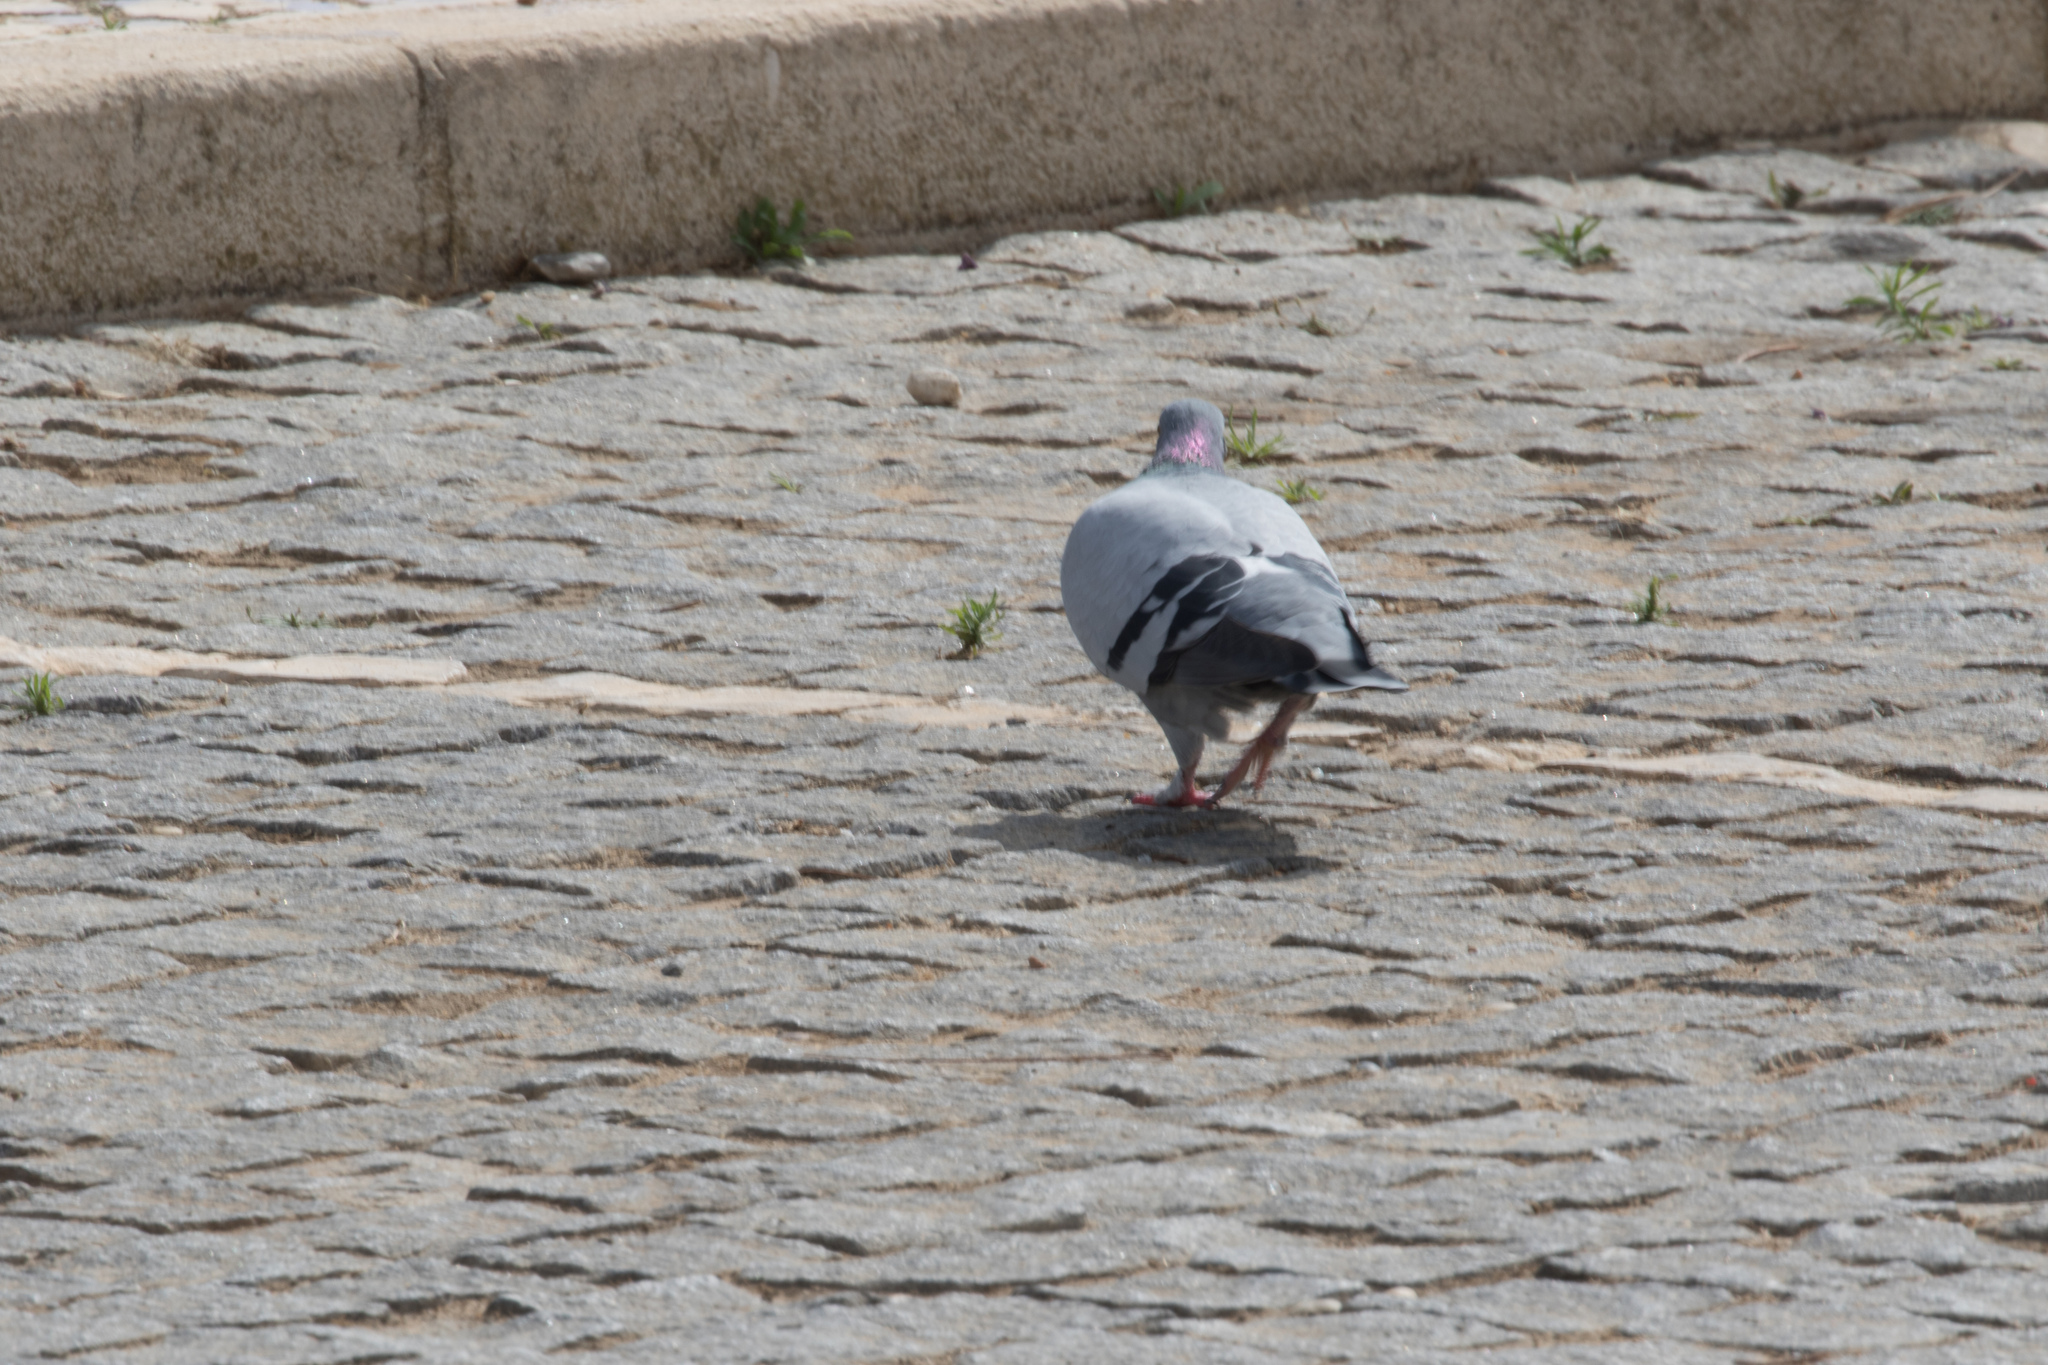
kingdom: Animalia
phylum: Chordata
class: Aves
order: Columbiformes
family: Columbidae
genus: Columba
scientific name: Columba livia
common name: Rock pigeon
